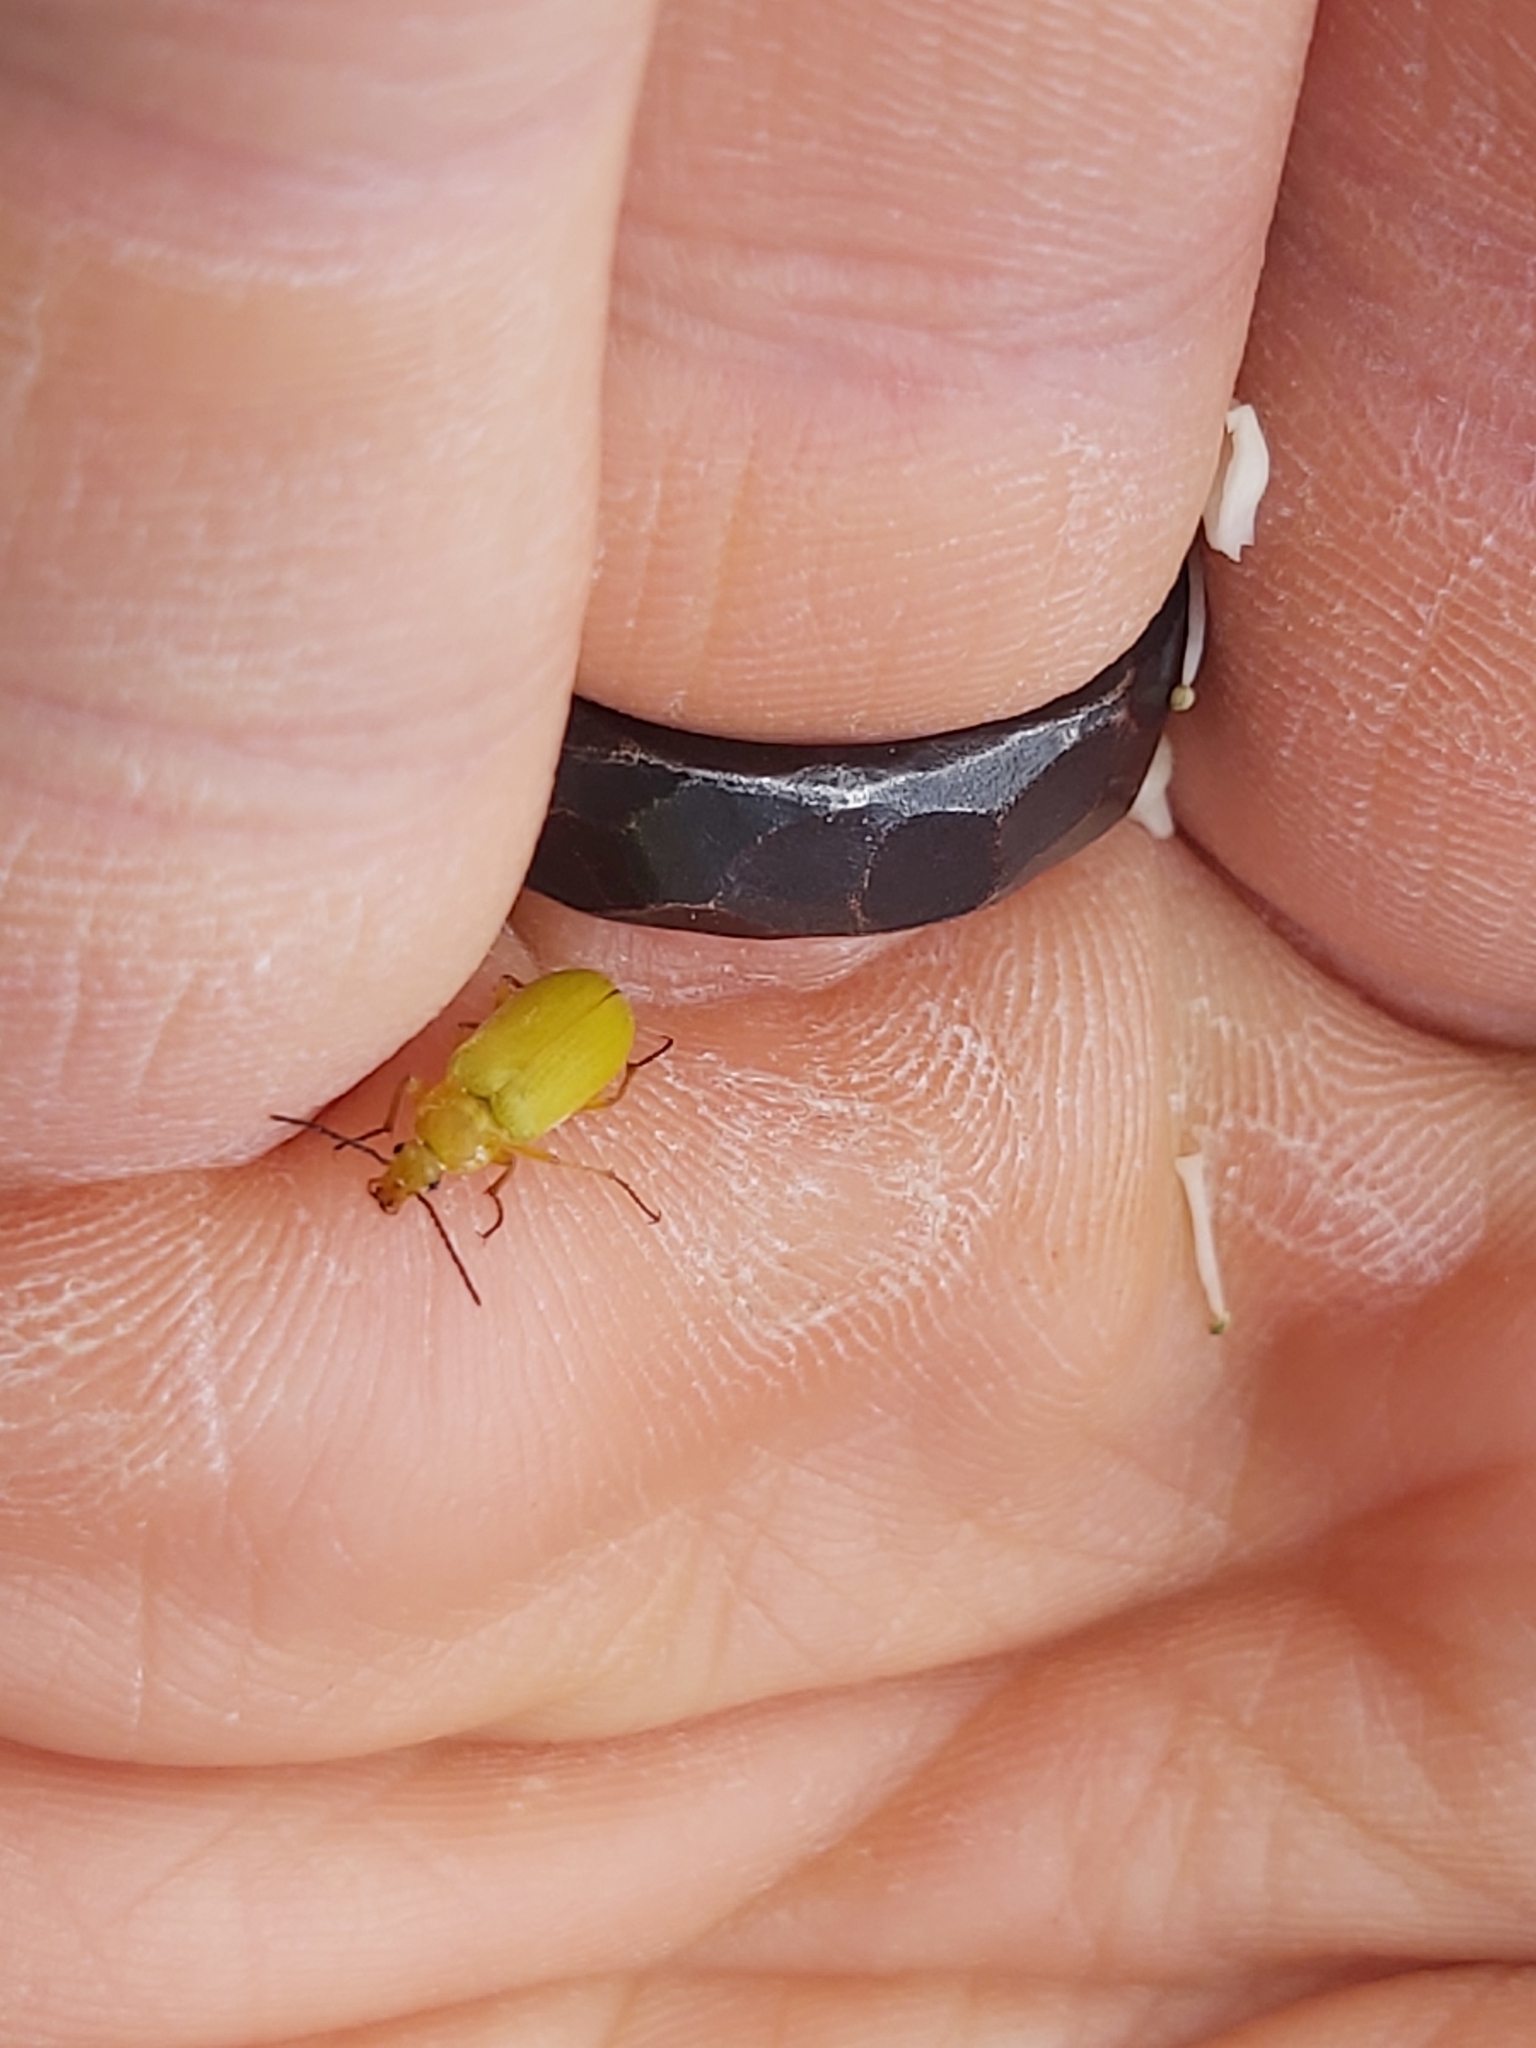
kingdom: Animalia
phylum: Arthropoda
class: Insecta
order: Coleoptera
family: Tenebrionidae
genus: Cteniopus
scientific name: Cteniopus sulphureus
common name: Sulphur beetle
